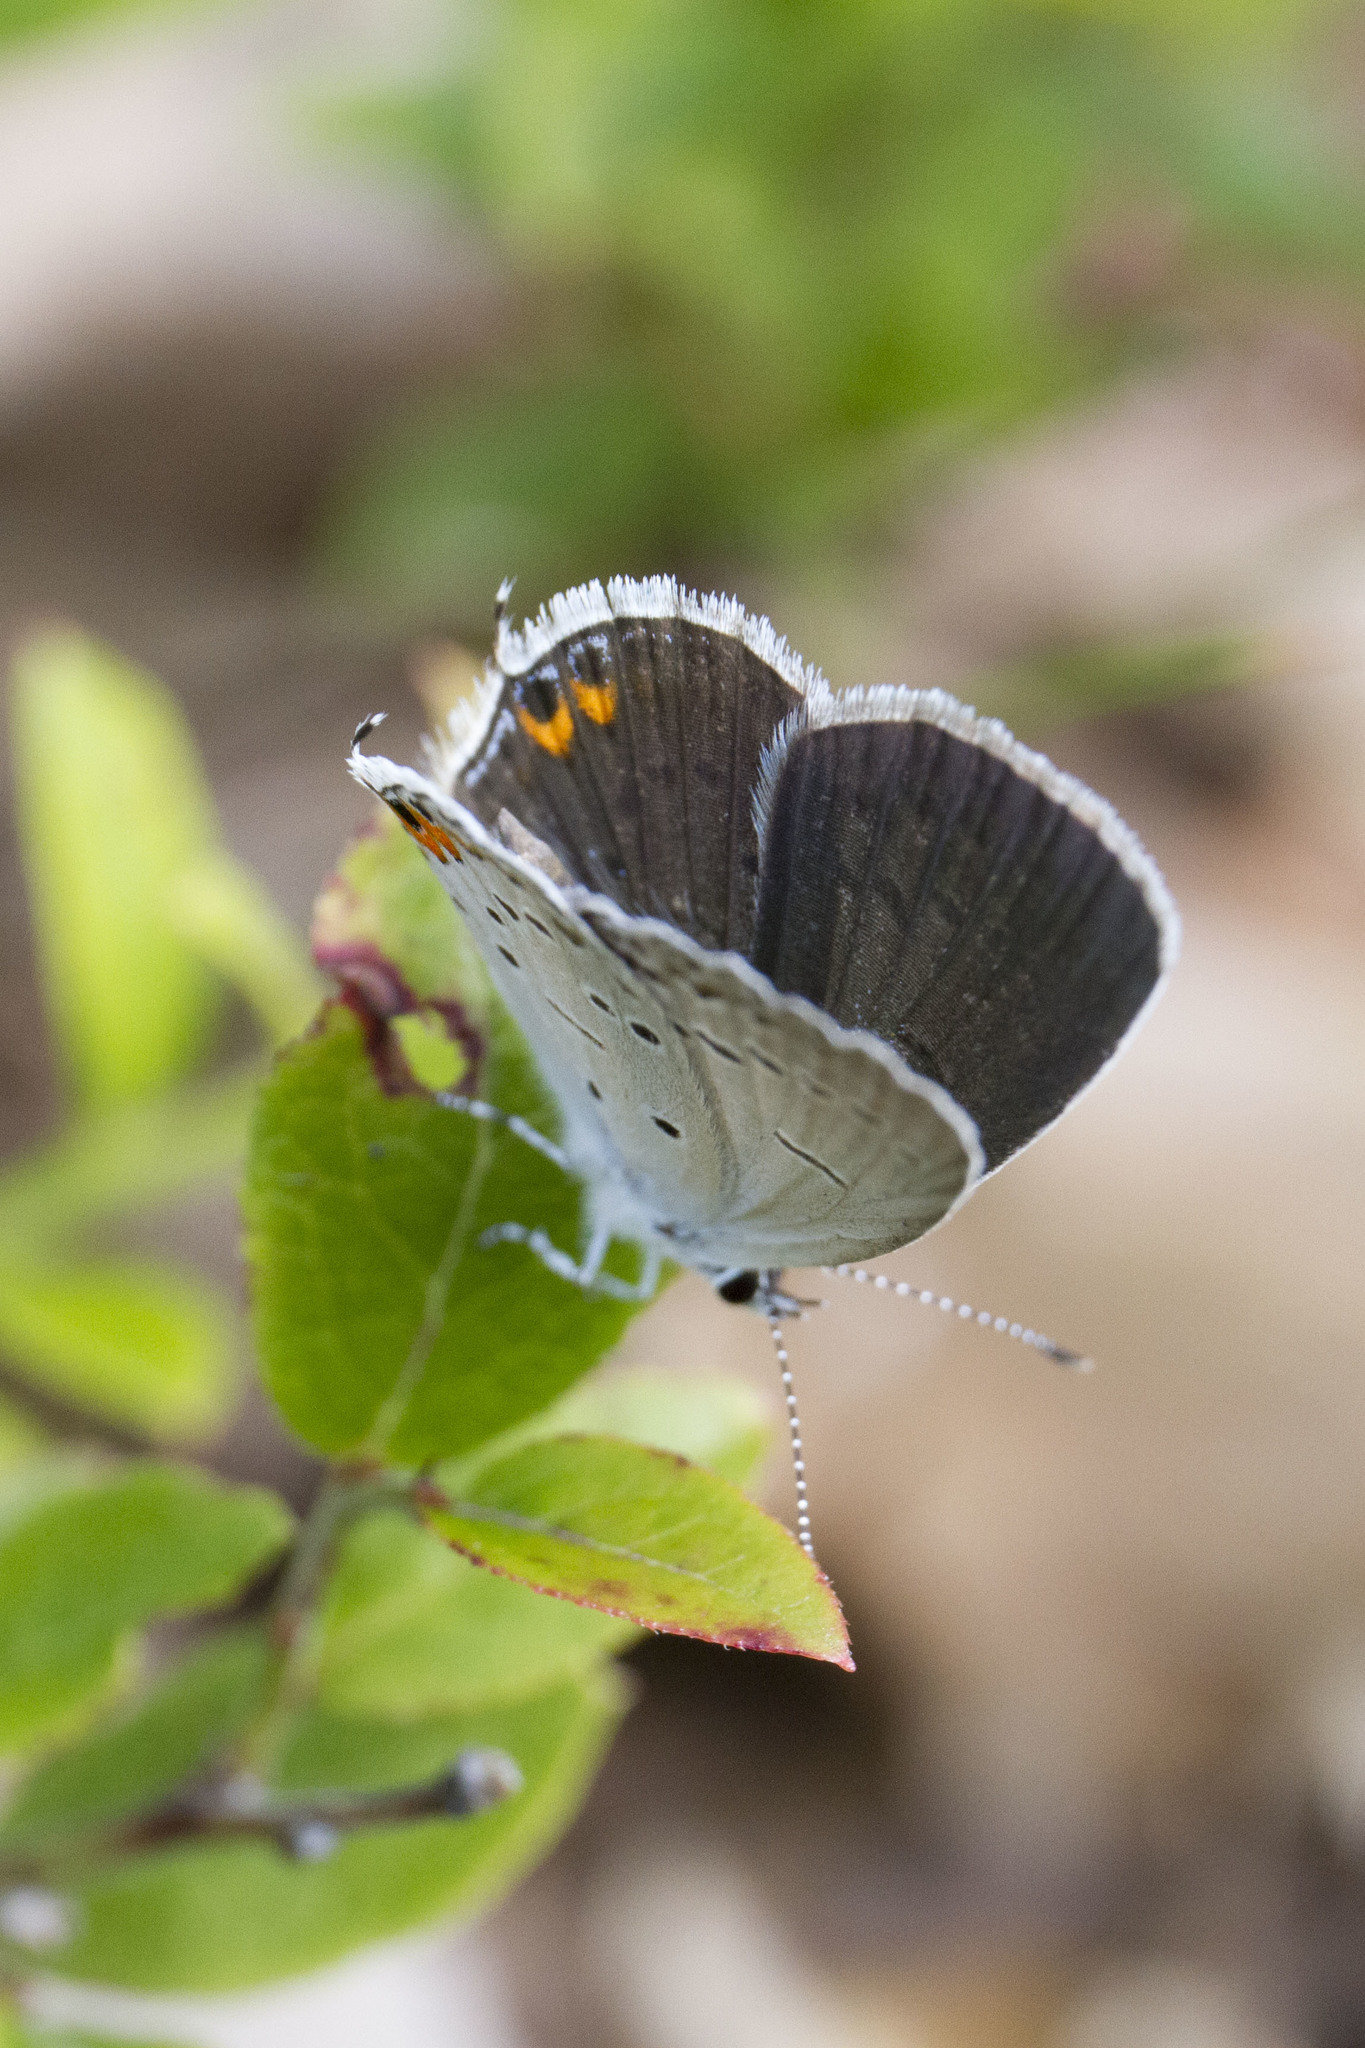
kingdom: Animalia
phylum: Arthropoda
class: Insecta
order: Lepidoptera
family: Lycaenidae
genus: Elkalyce
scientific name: Elkalyce comyntas
